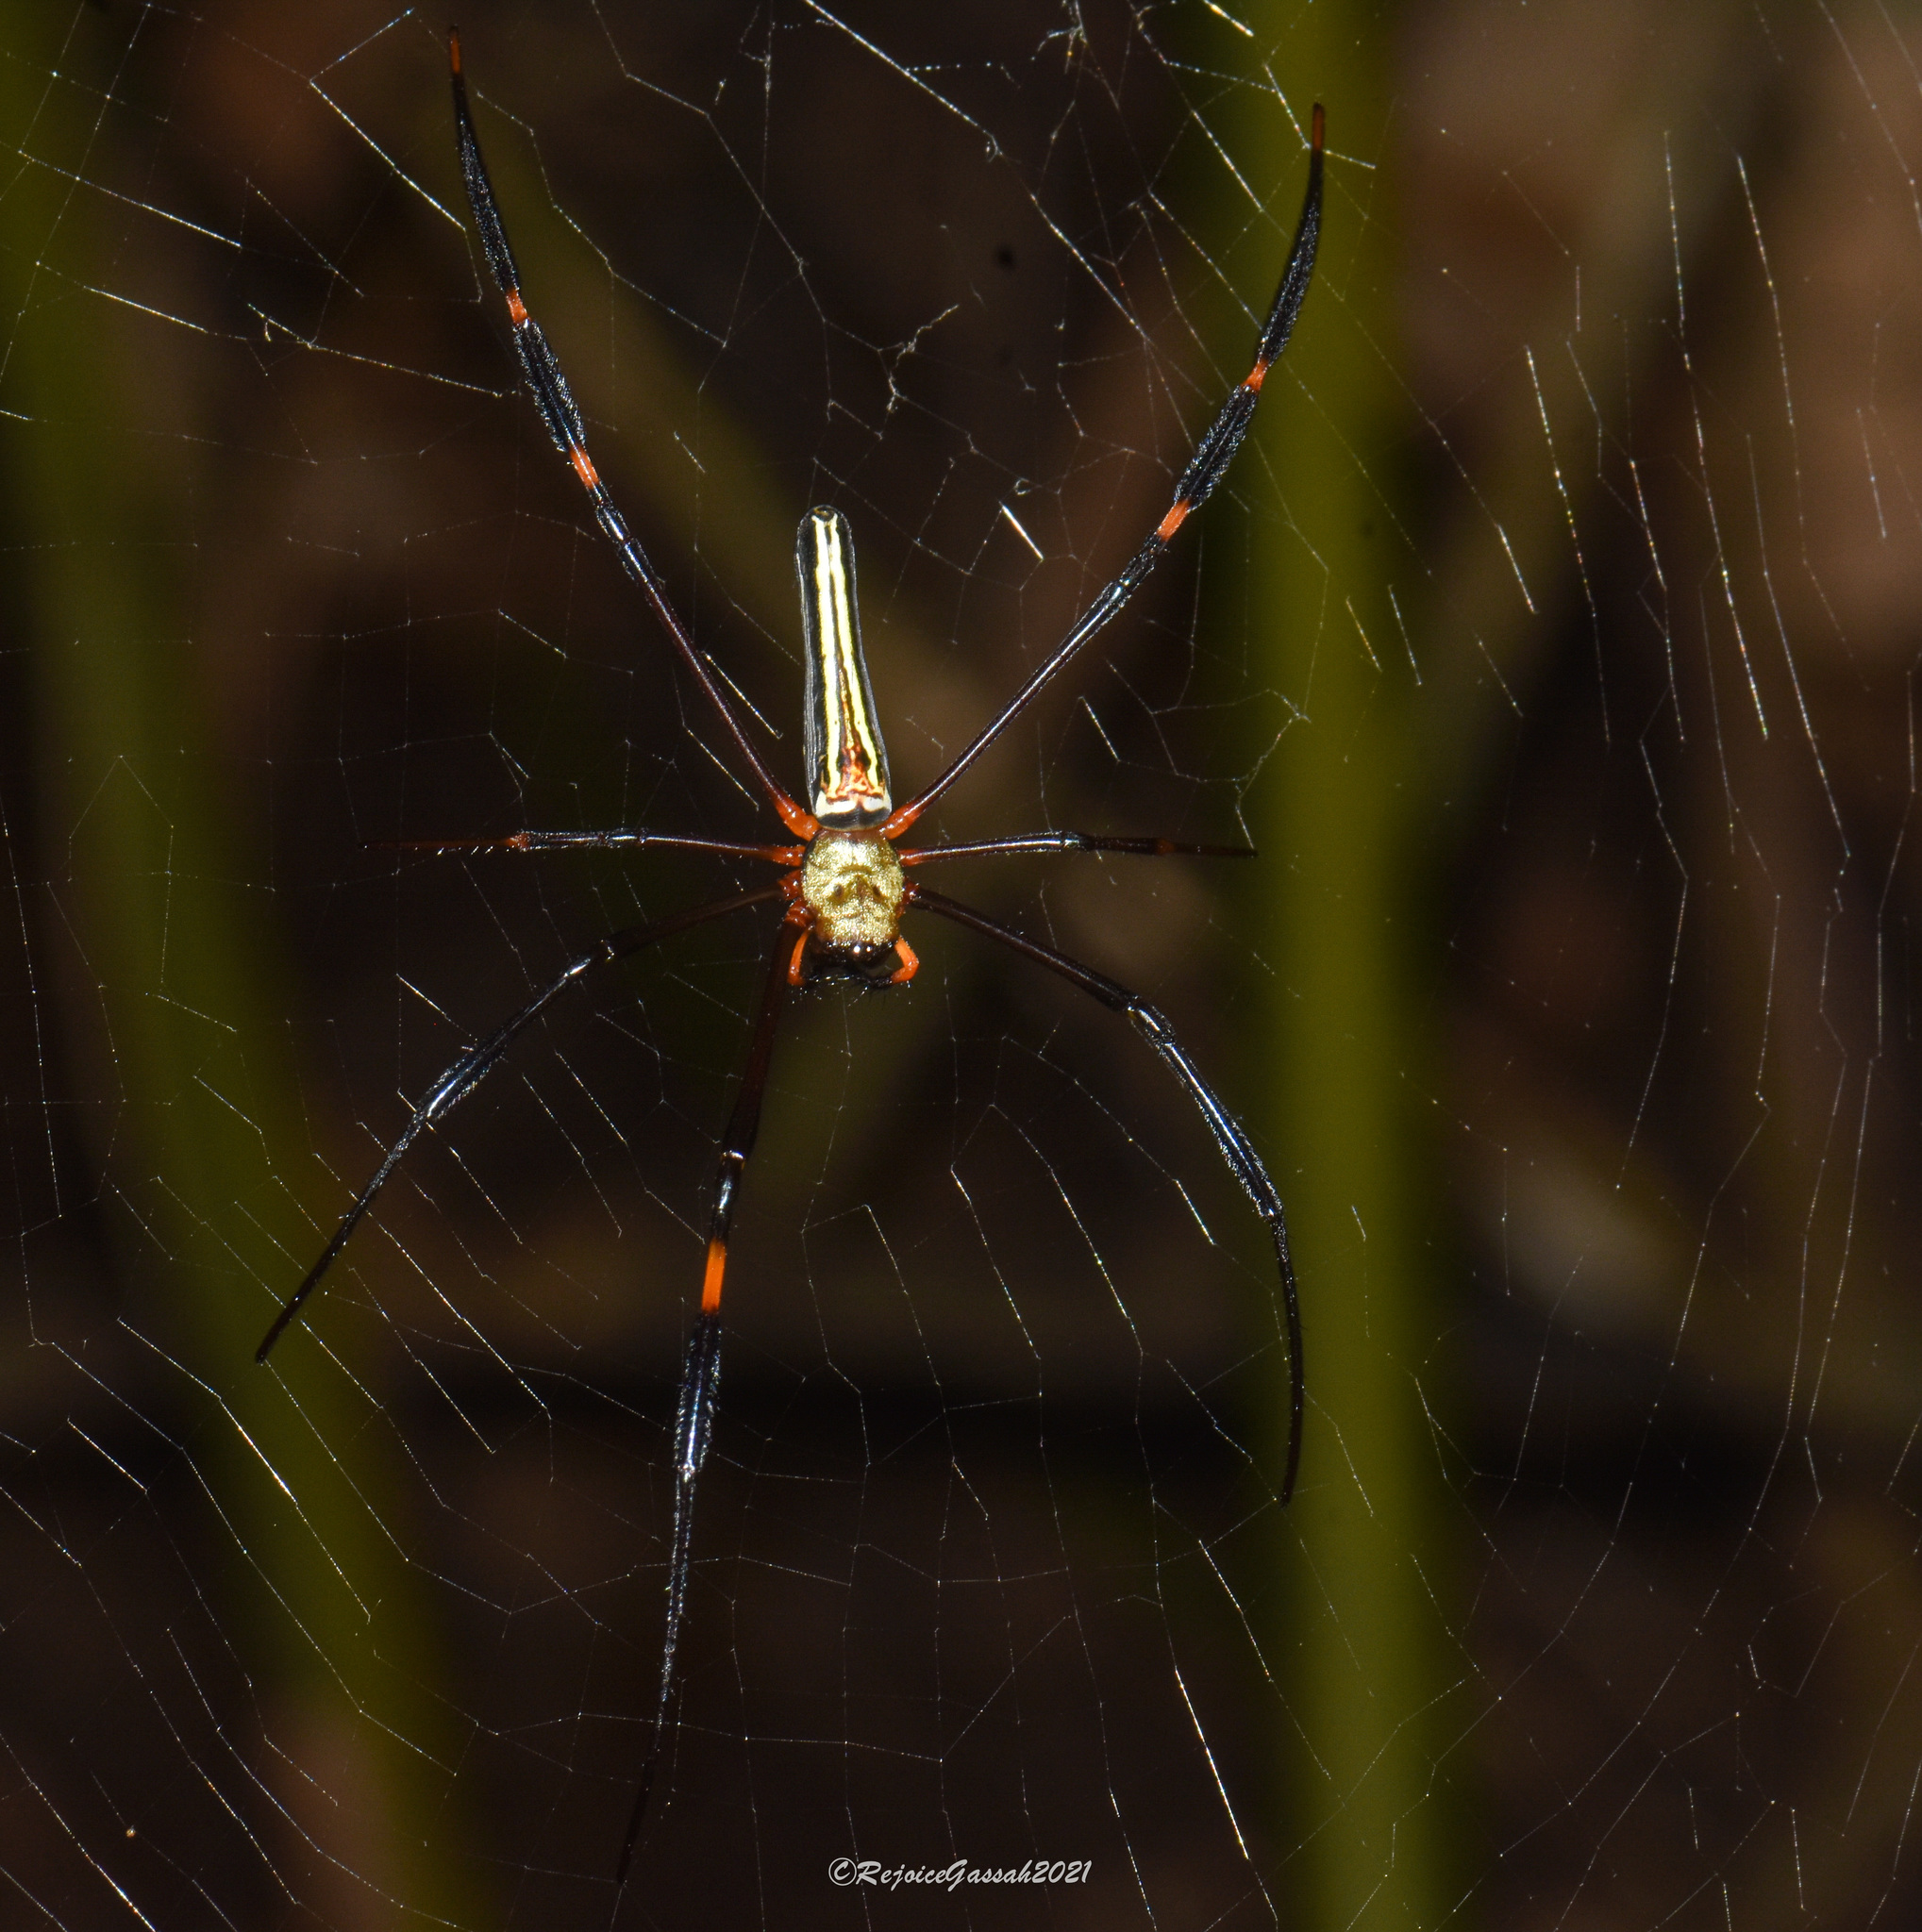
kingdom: Animalia
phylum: Arthropoda
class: Arachnida
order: Araneae
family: Araneidae
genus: Nephila
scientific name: Nephila pilipes
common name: Giant golden orb weaver
